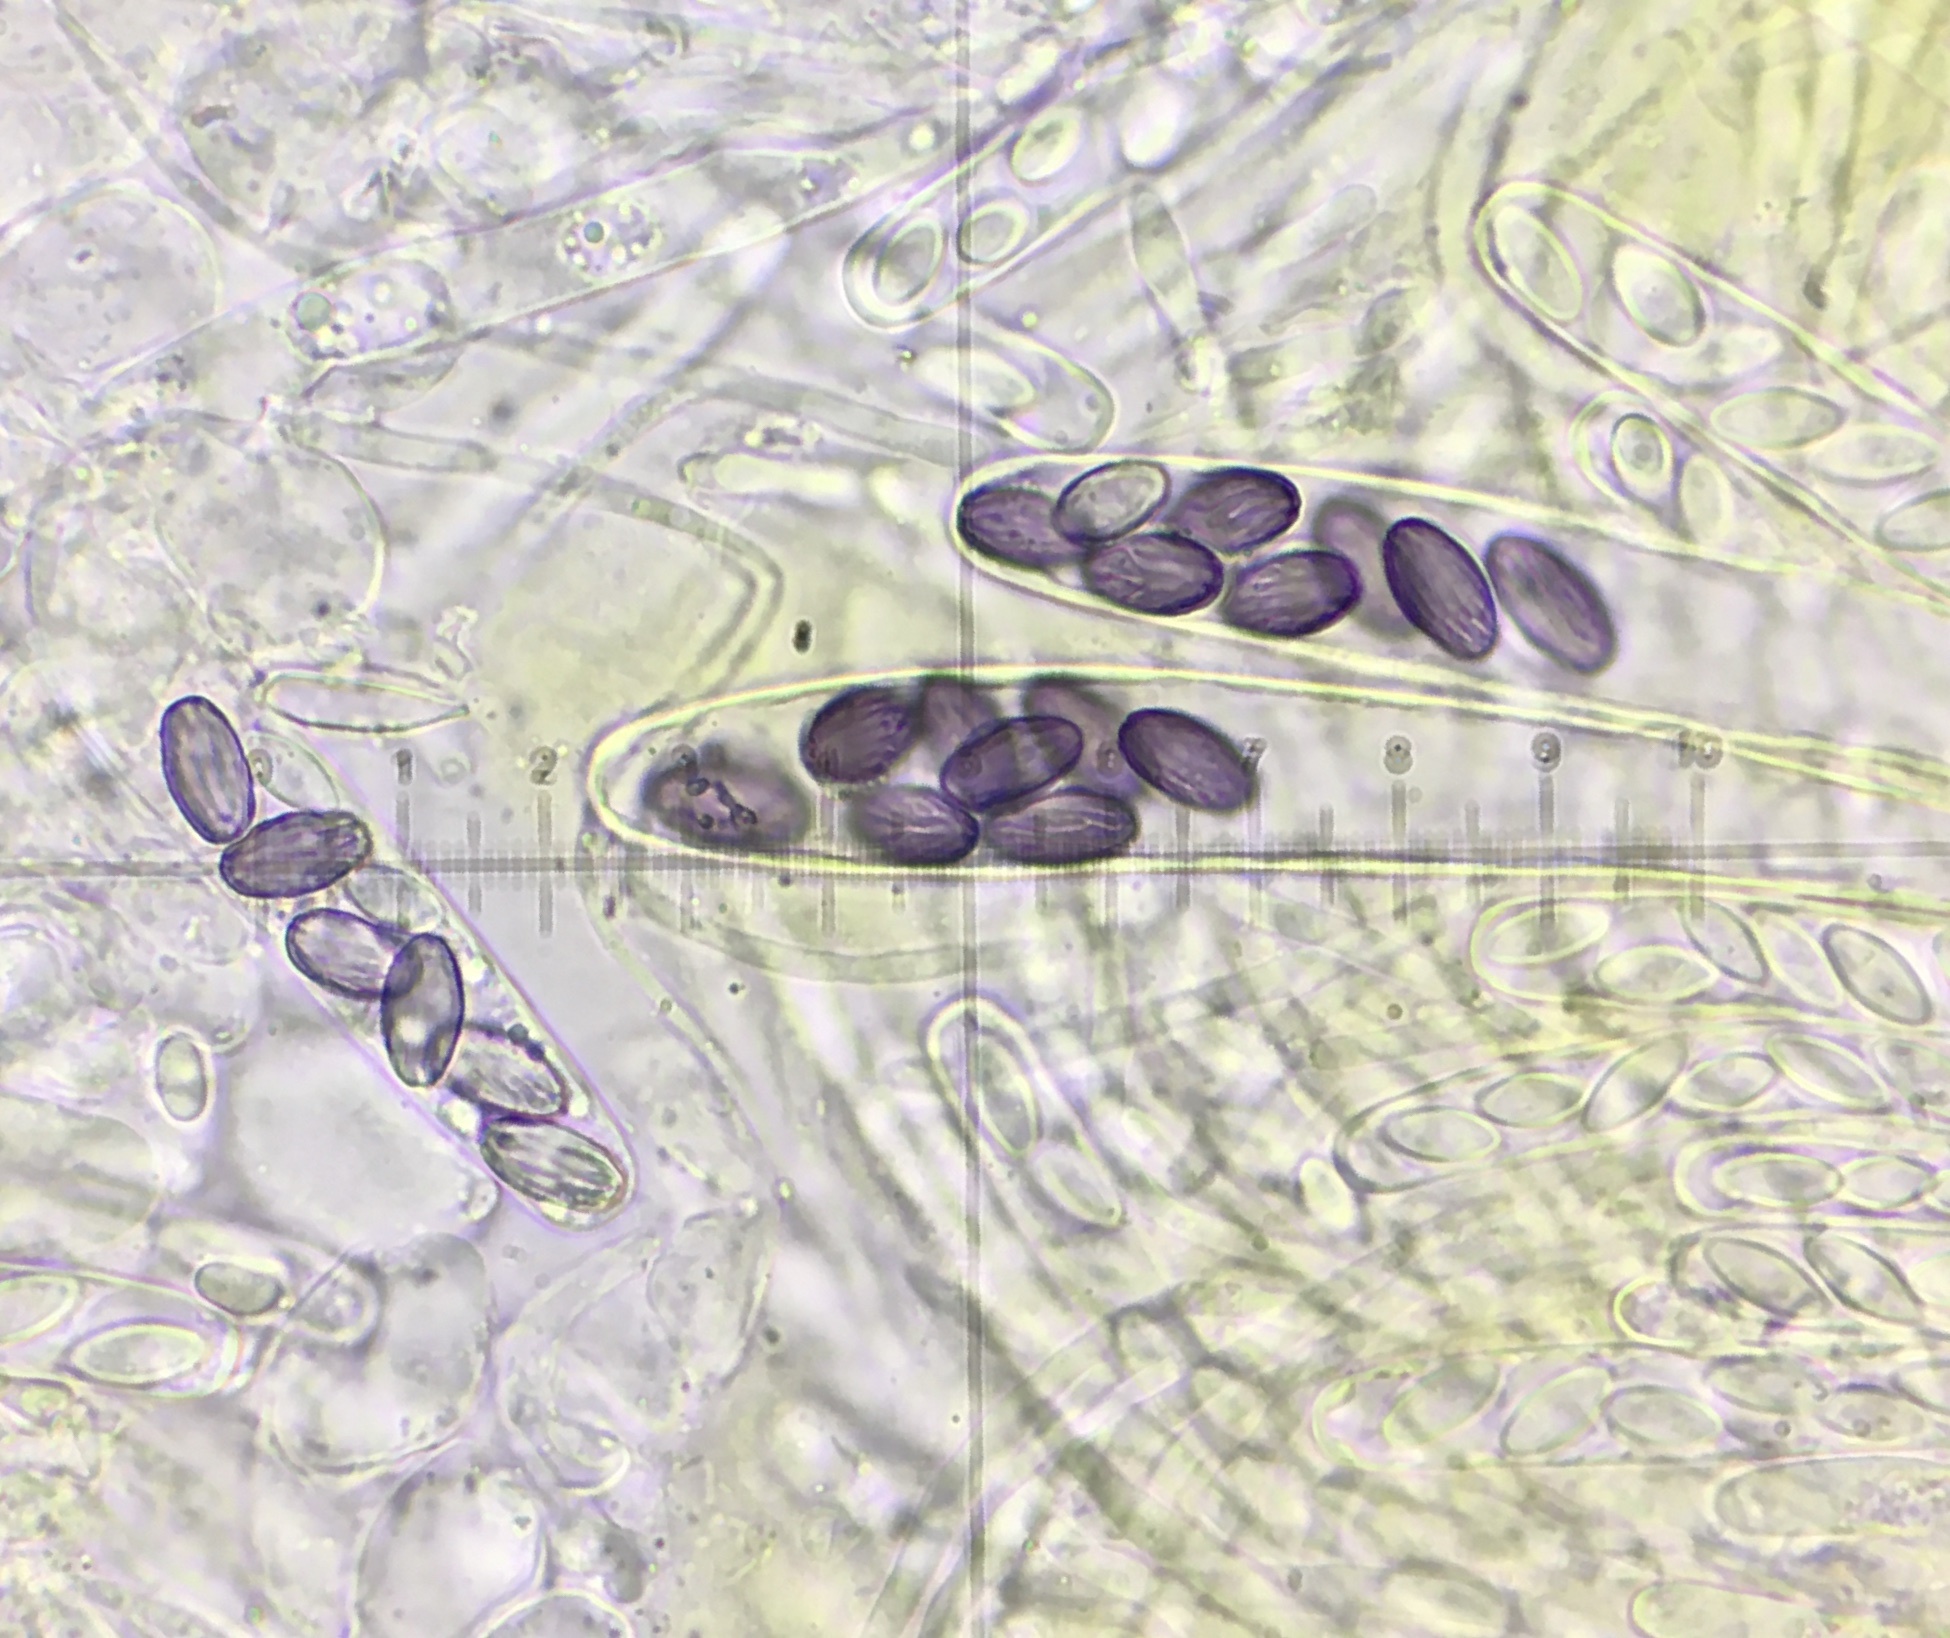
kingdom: Fungi
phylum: Ascomycota
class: Pezizomycetes
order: Pezizales
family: Ascobolaceae
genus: Ascobolus
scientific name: Ascobolus crenulatus
